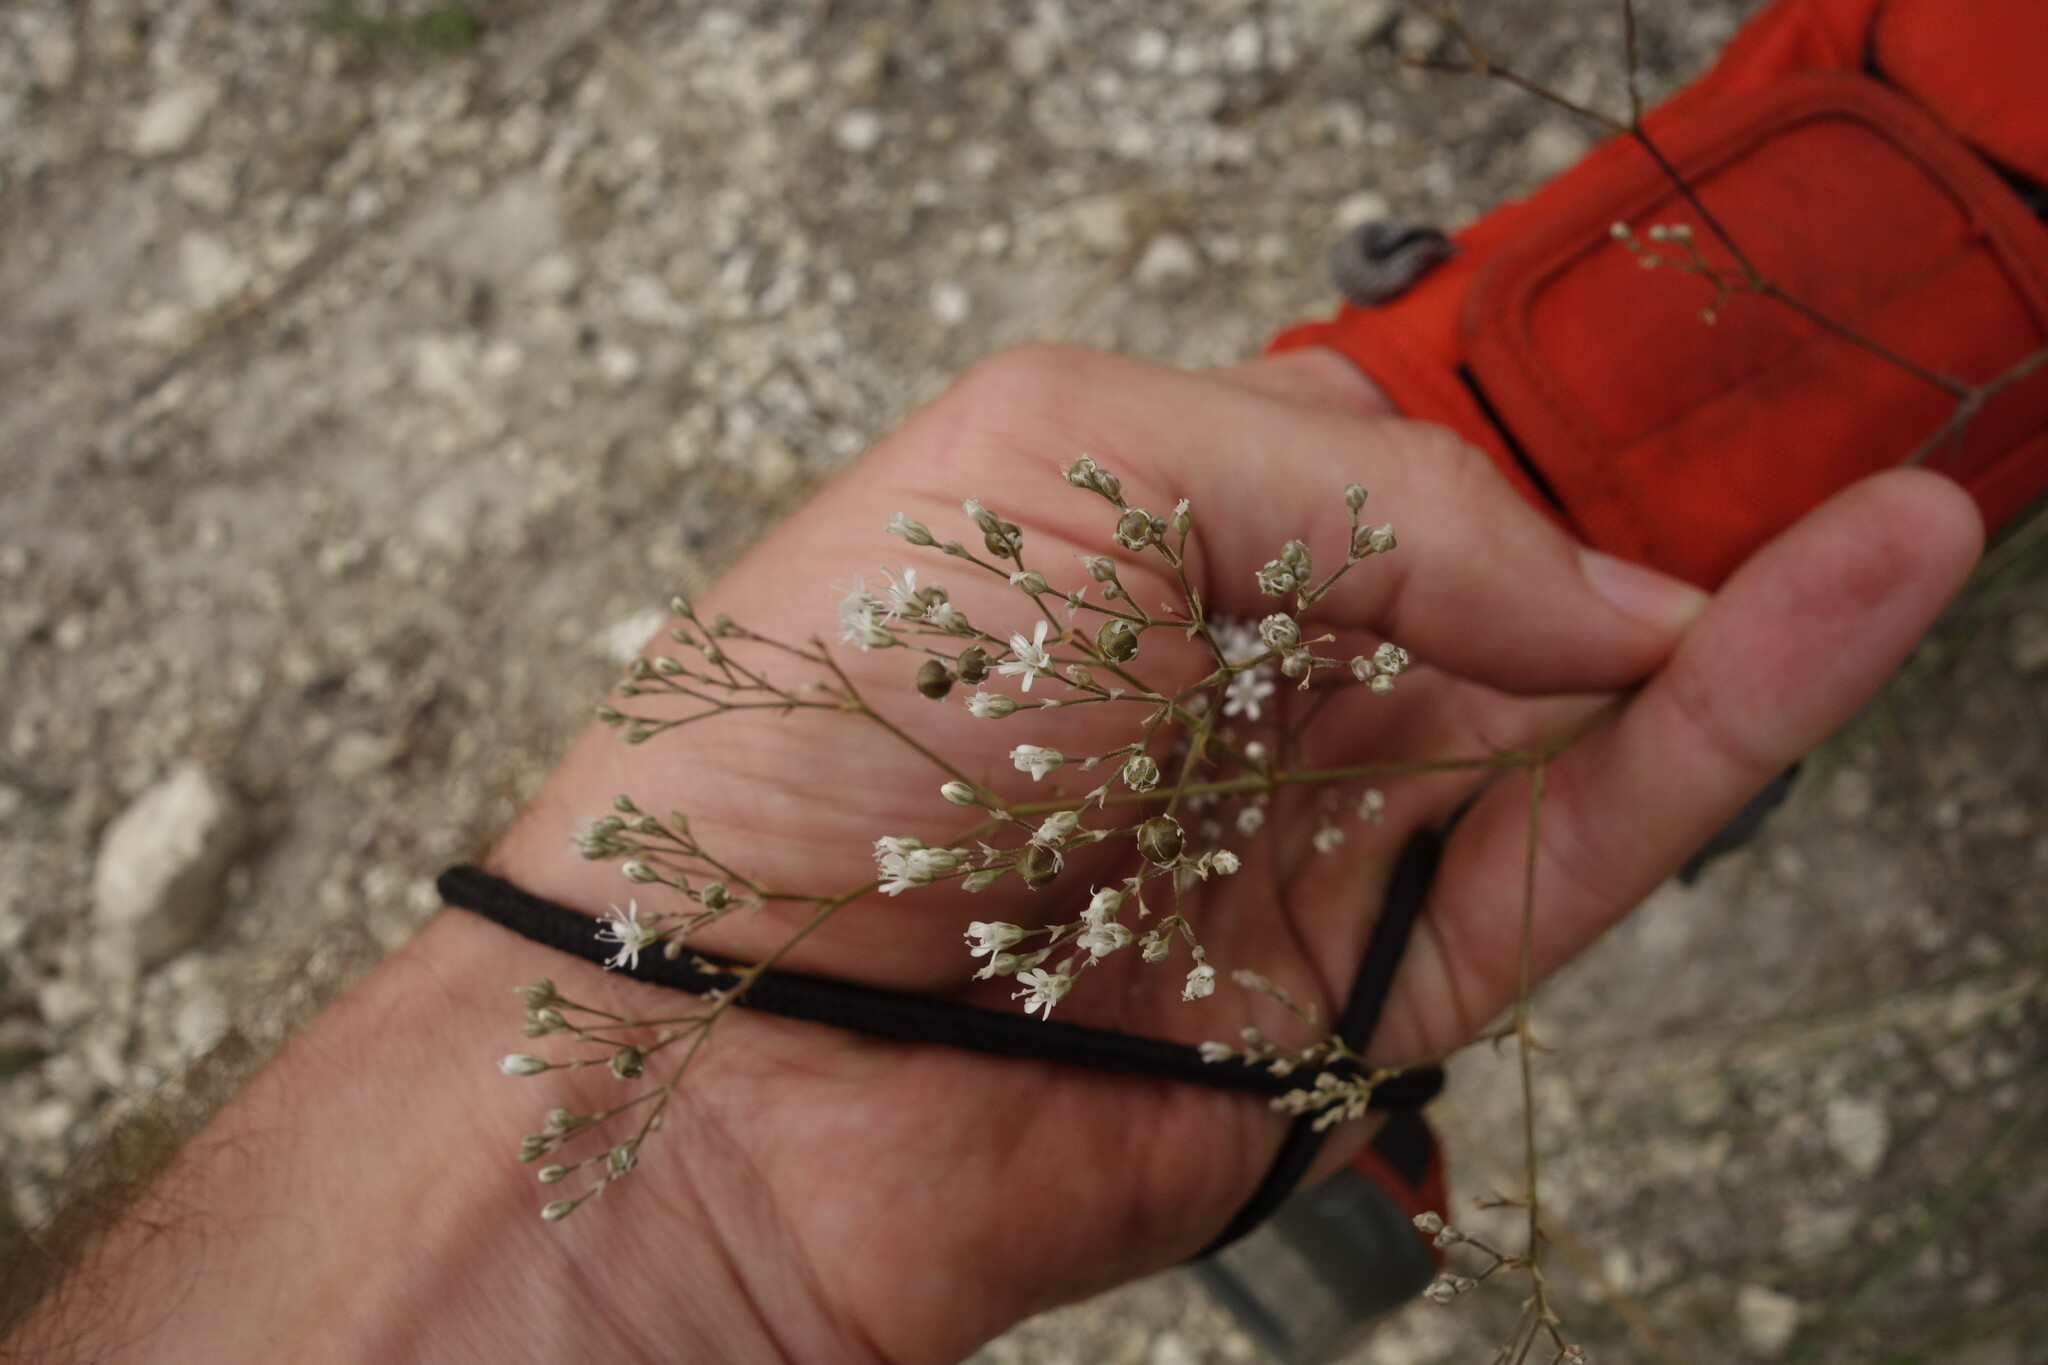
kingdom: Plantae
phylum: Tracheophyta
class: Magnoliopsida
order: Caryophyllales
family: Caryophyllaceae
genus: Gypsophila
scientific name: Gypsophila altissima
